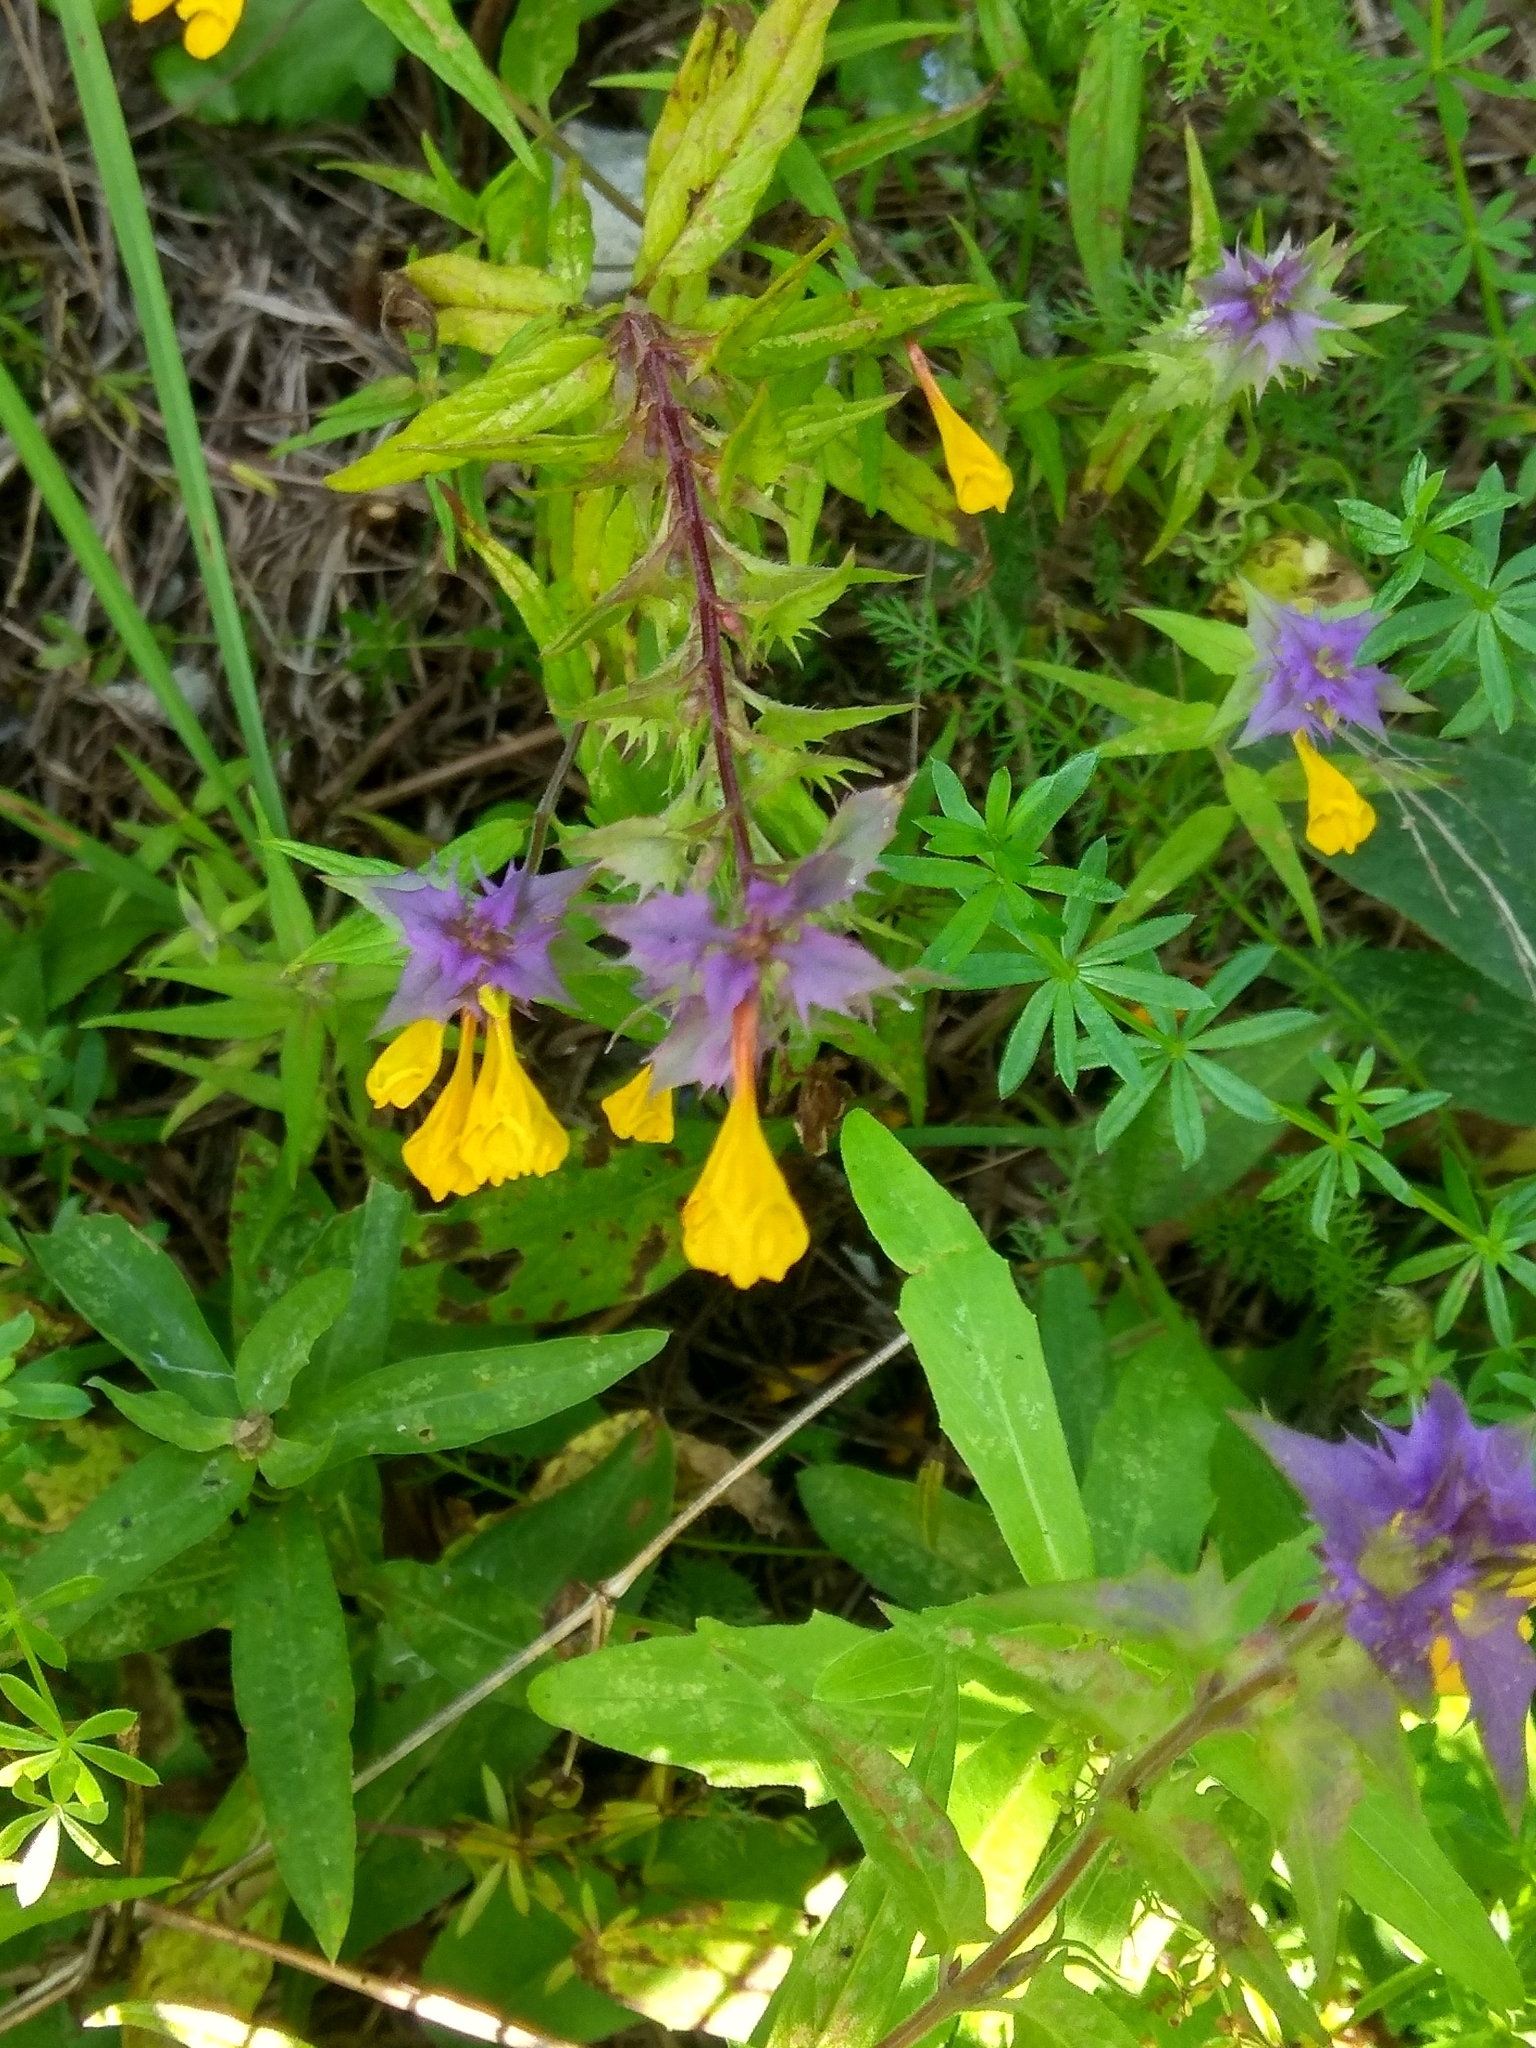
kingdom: Plantae
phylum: Tracheophyta
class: Magnoliopsida
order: Lamiales
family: Orobanchaceae
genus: Melampyrum
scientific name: Melampyrum nemorosum
